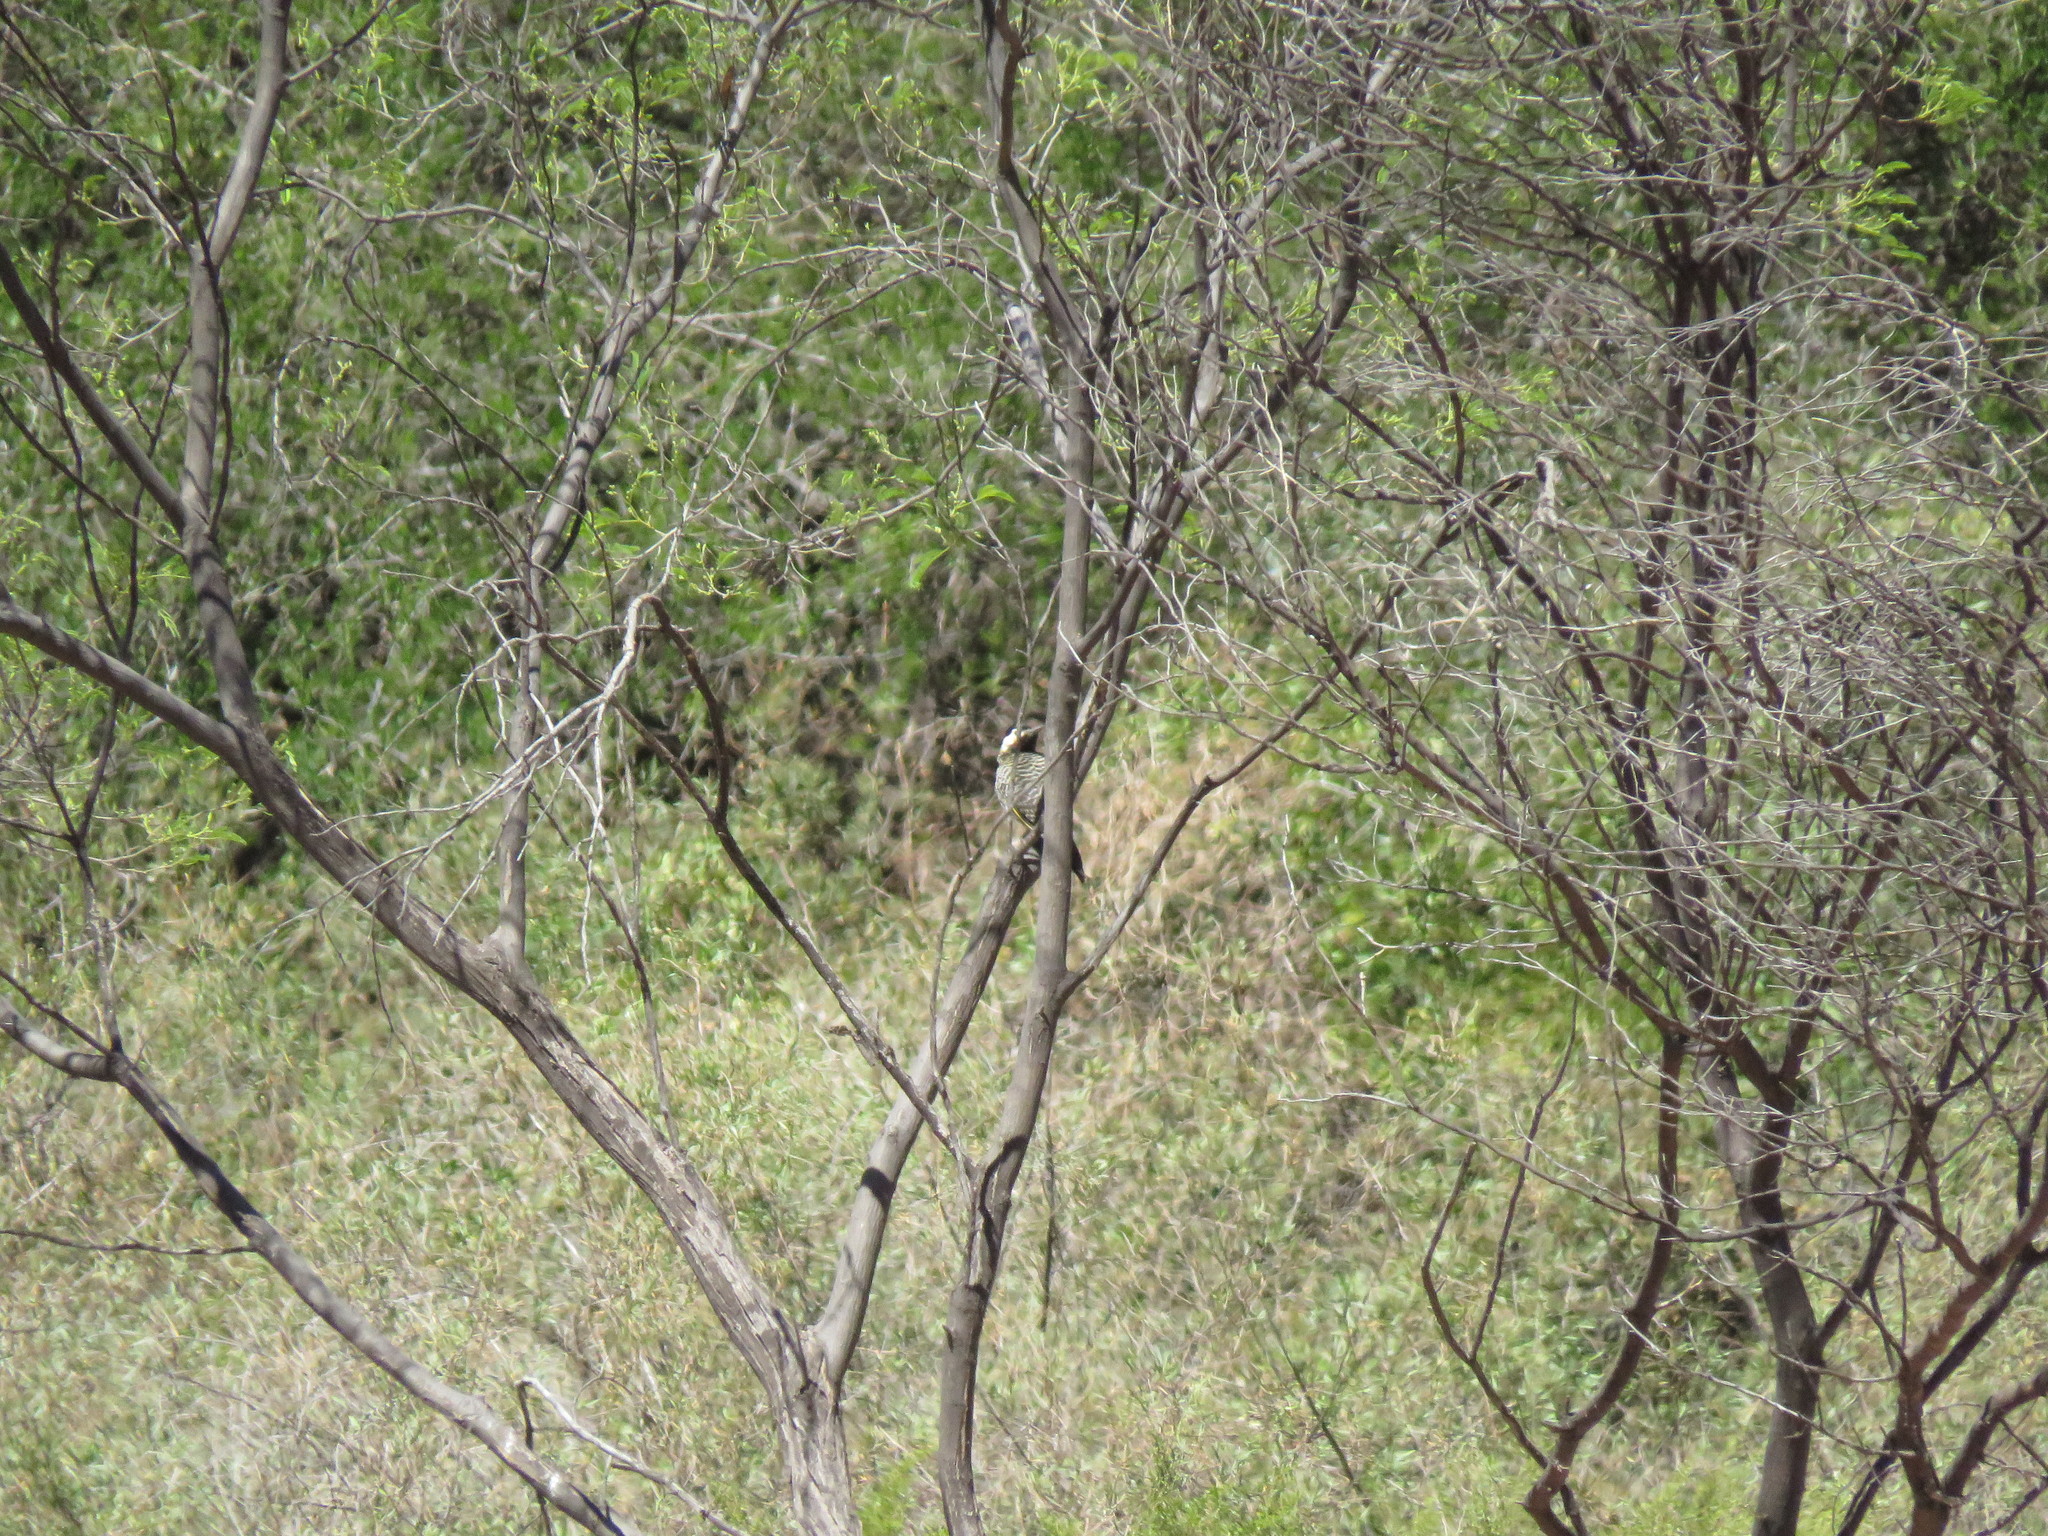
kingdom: Animalia
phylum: Chordata
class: Aves
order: Piciformes
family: Picidae
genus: Colaptes
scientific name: Colaptes melanochloros
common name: Green-barred woodpecker
